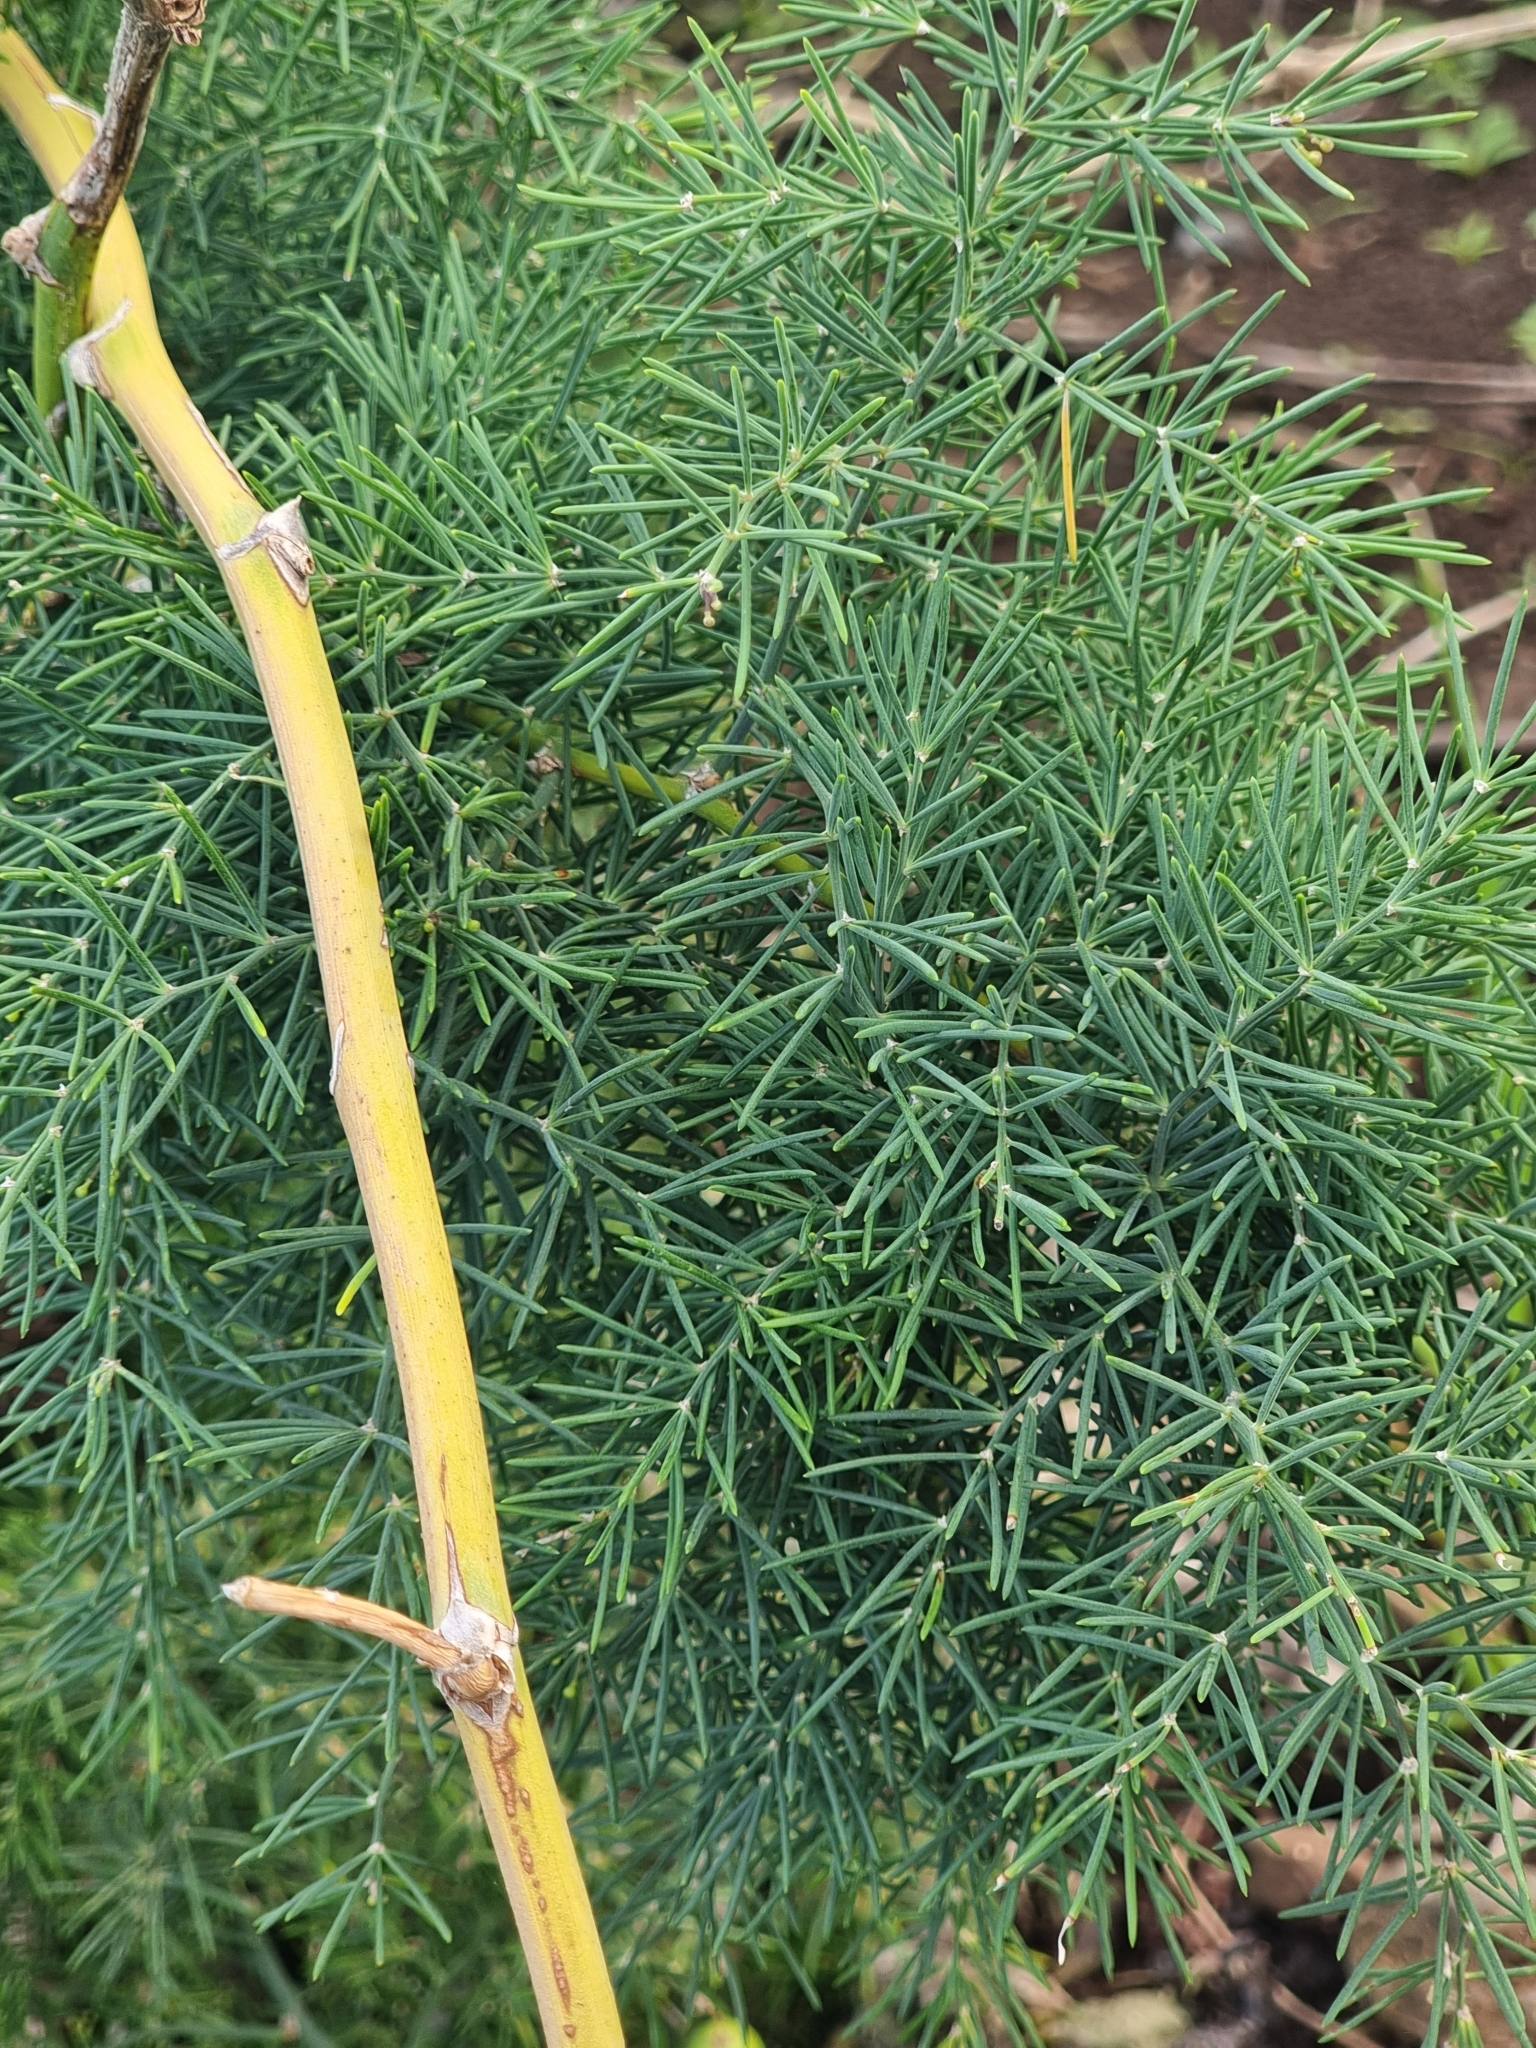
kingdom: Plantae
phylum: Tracheophyta
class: Liliopsida
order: Asparagales
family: Asparagaceae
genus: Asparagus
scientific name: Asparagus umbellatus
